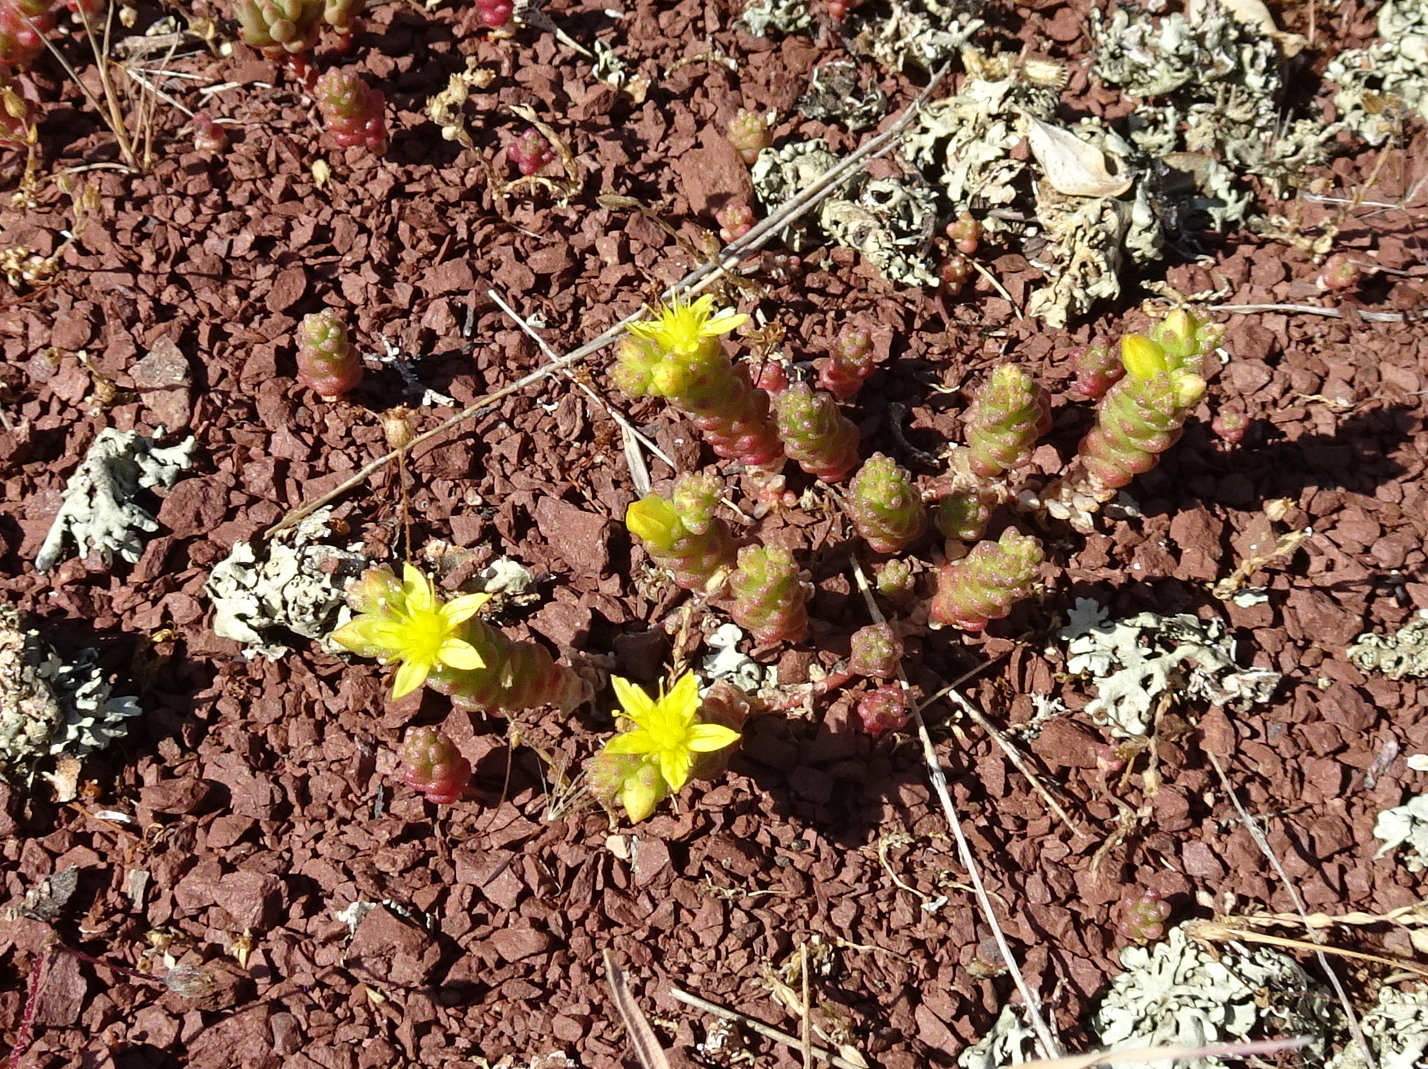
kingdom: Plantae
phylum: Tracheophyta
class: Magnoliopsida
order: Saxifragales
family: Crassulaceae
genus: Sedum
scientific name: Sedum acre
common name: Biting stonecrop
